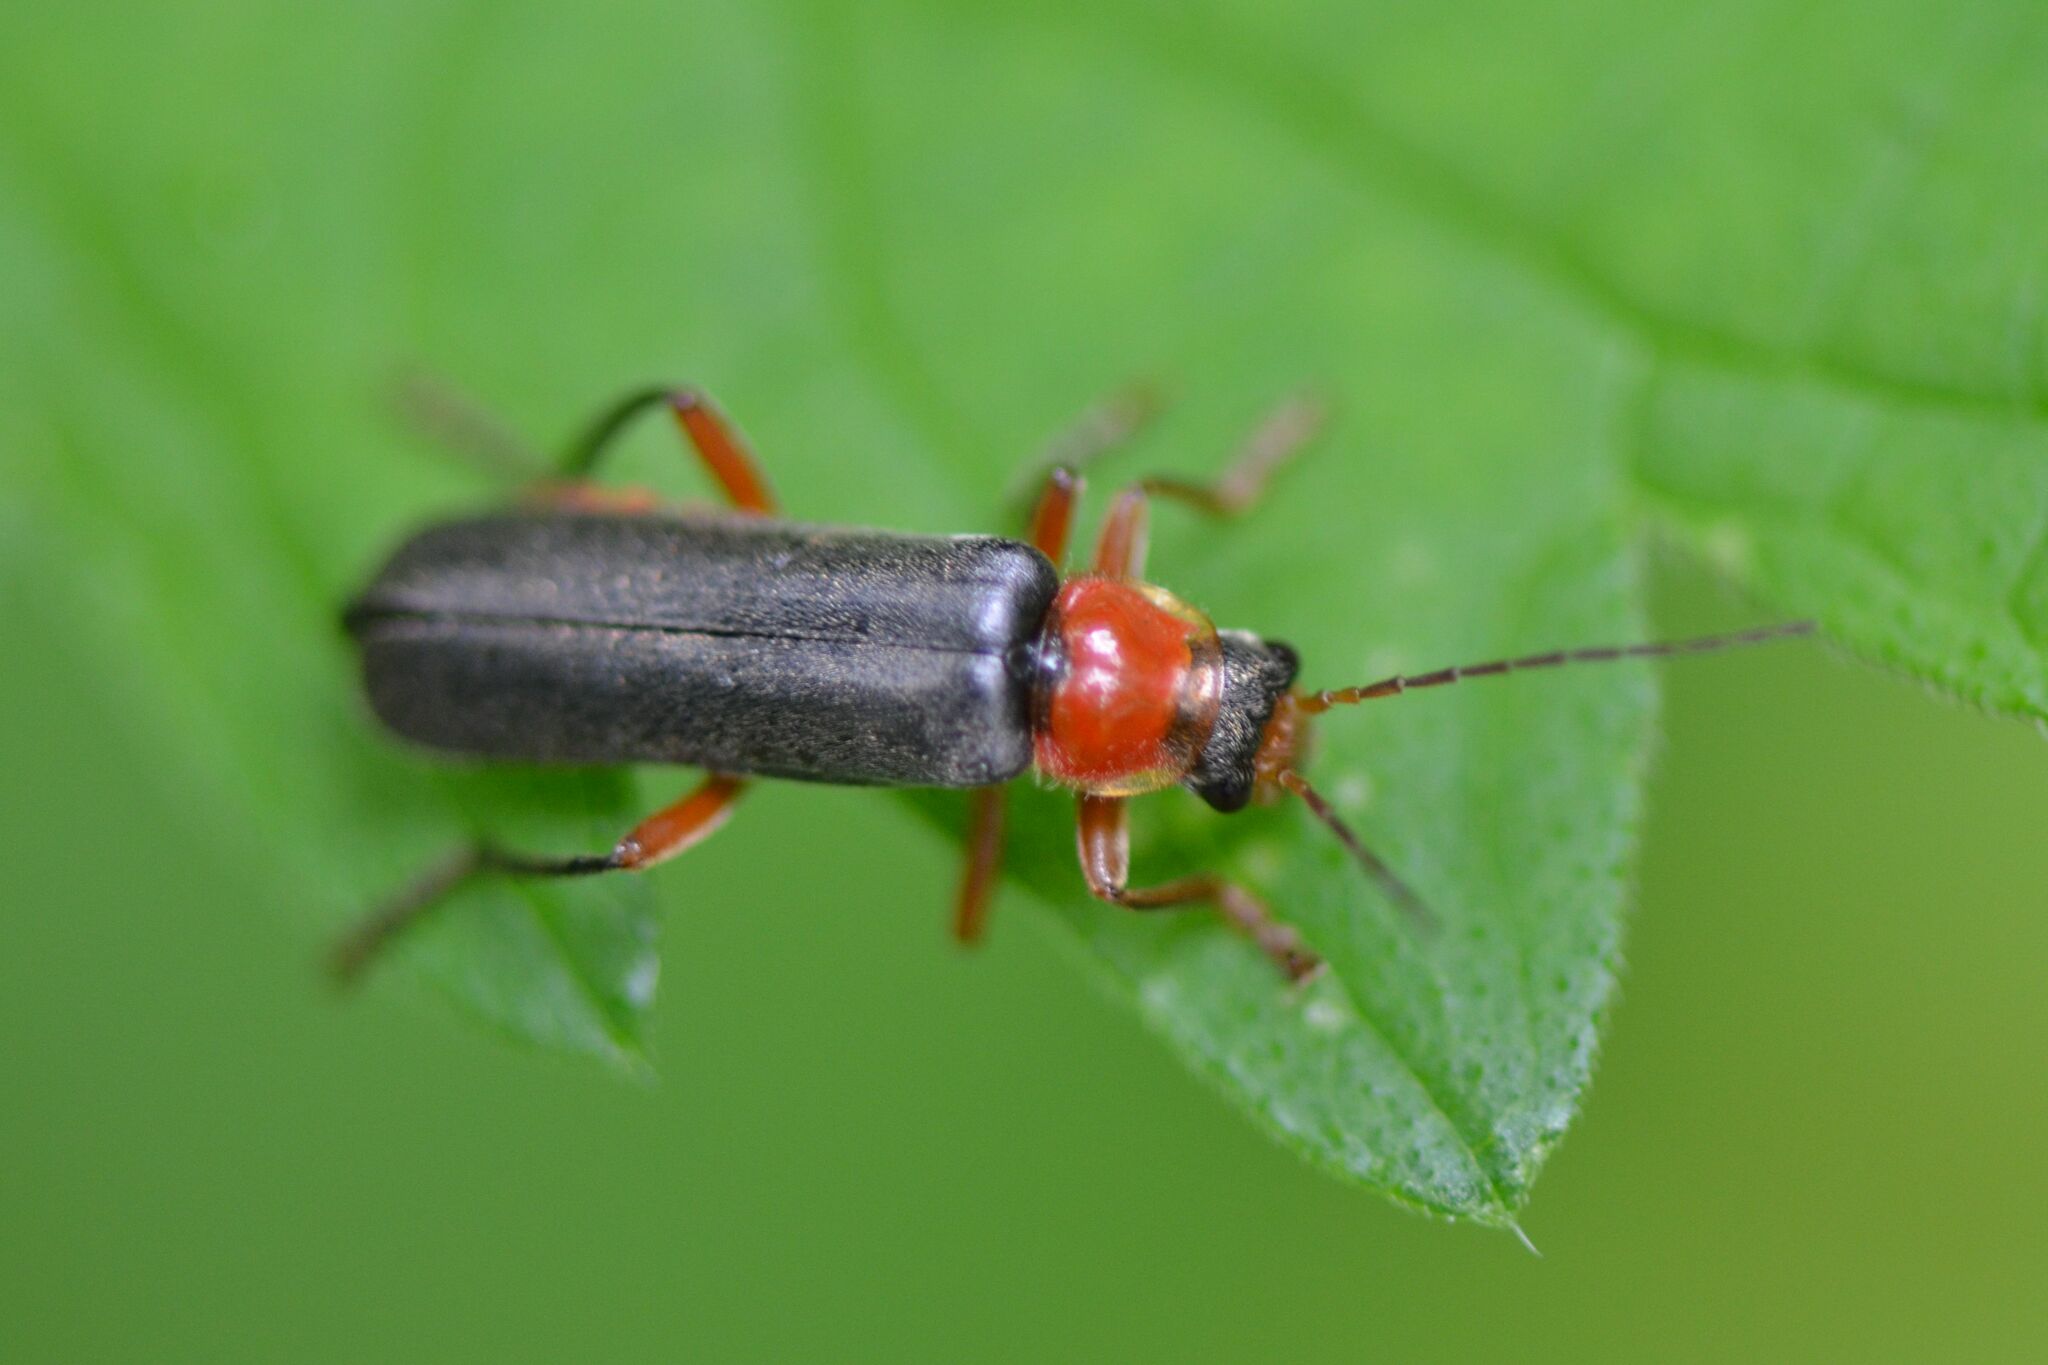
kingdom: Animalia
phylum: Arthropoda
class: Insecta
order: Coleoptera
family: Cantharidae
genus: Cantharis
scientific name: Cantharis pellucida
